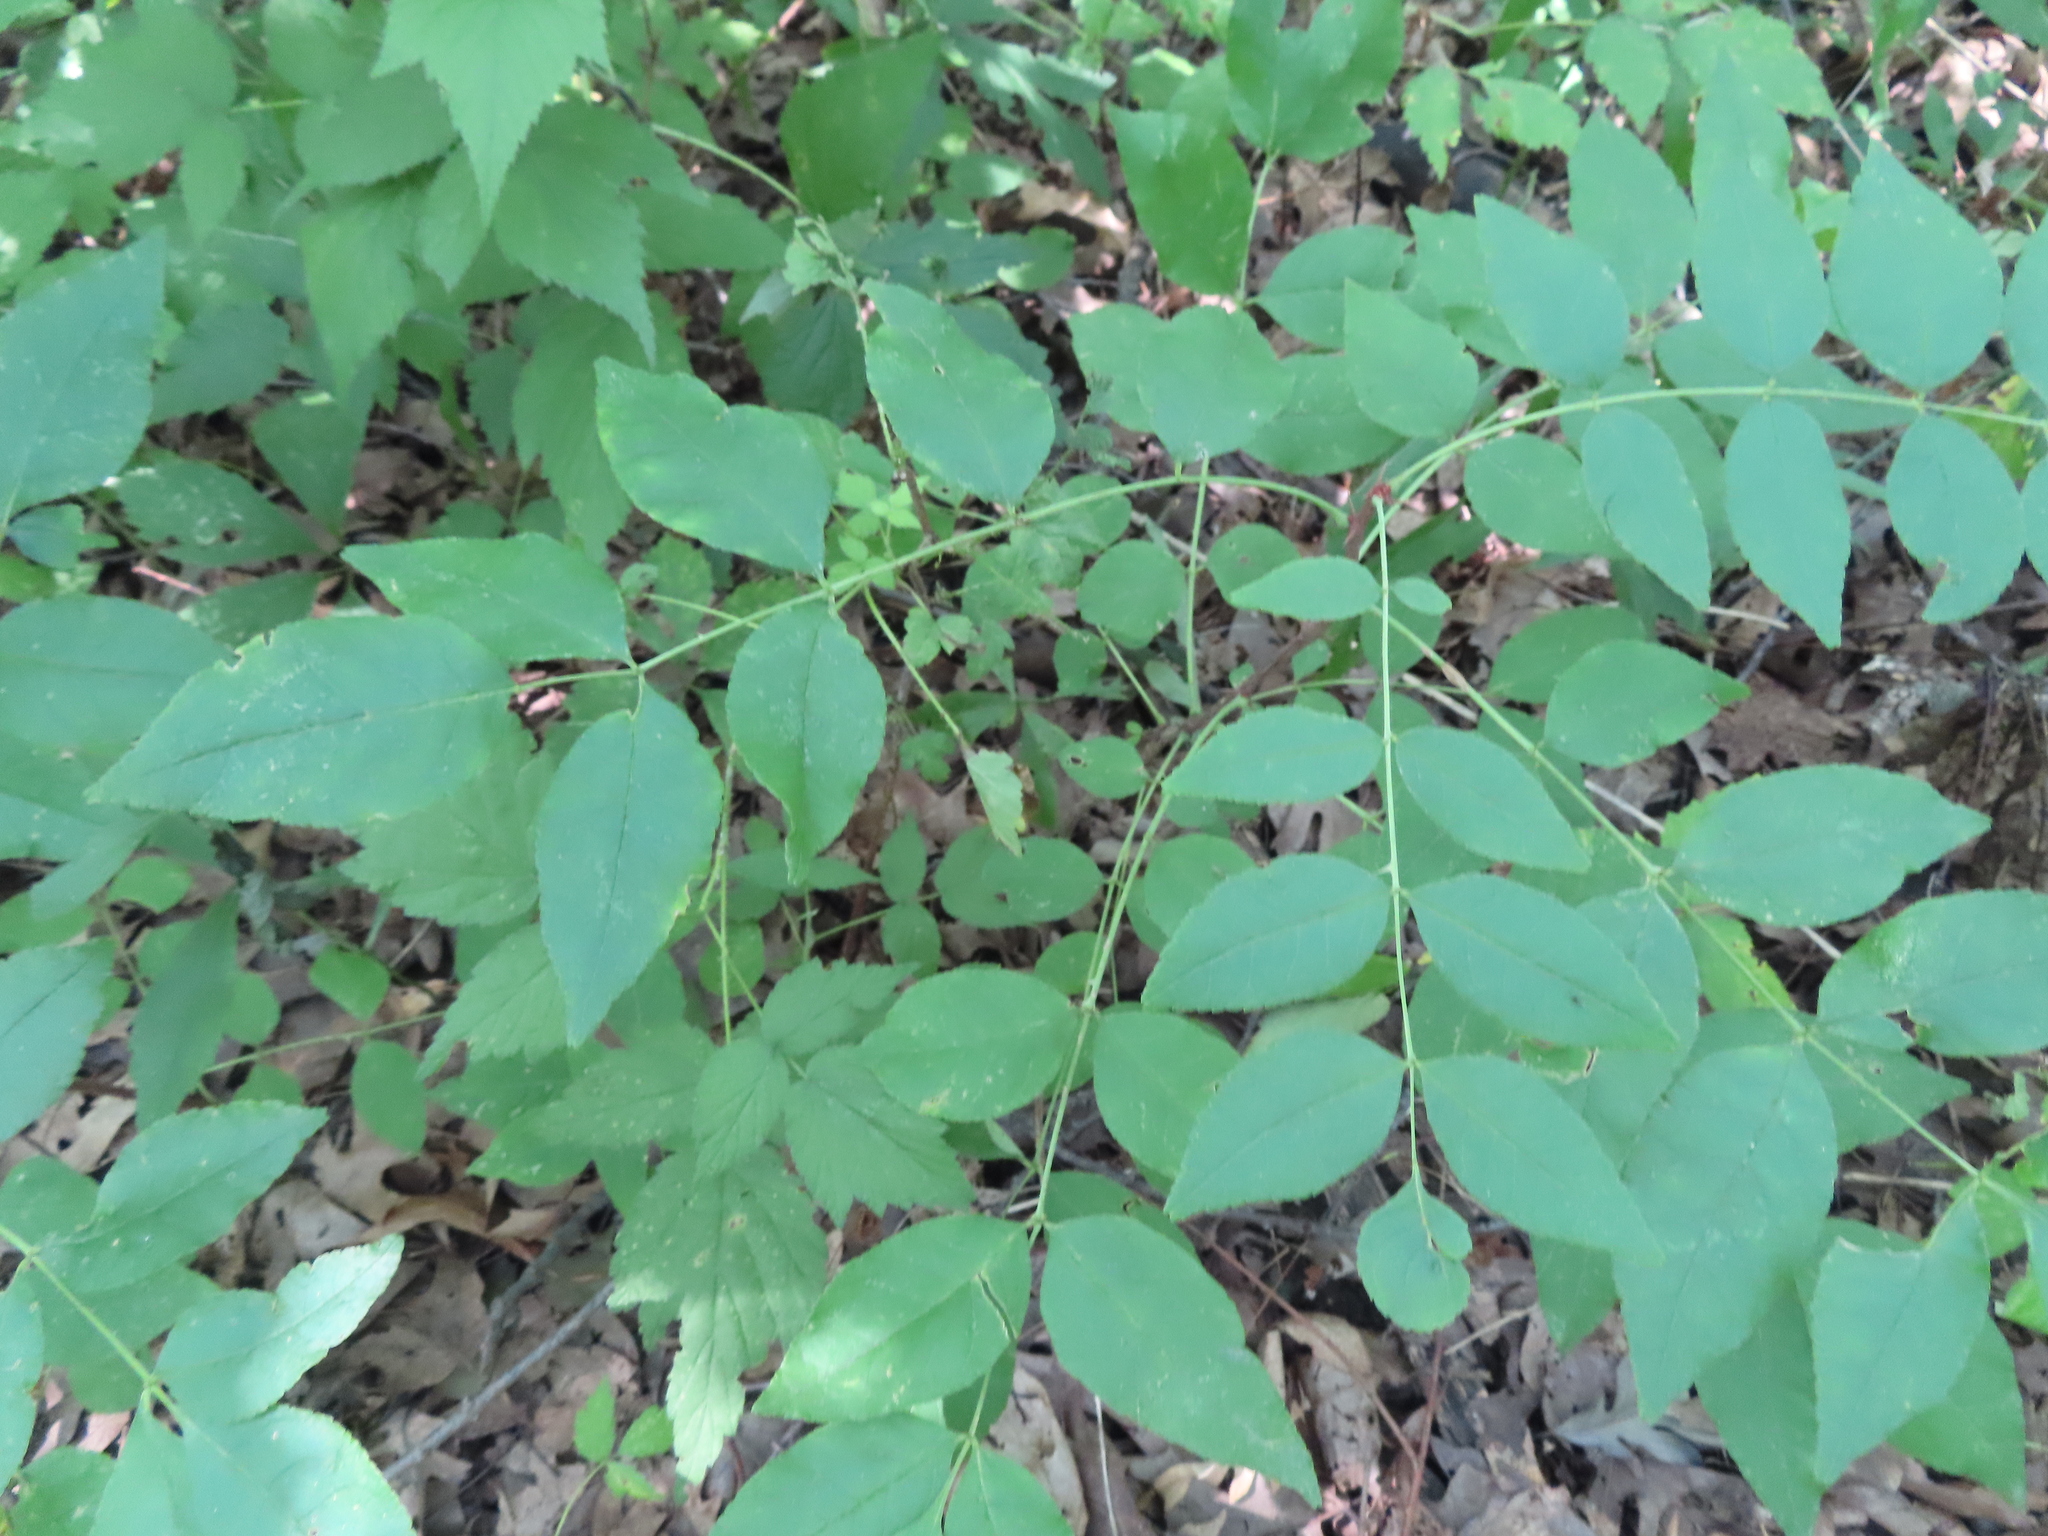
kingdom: Plantae
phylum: Tracheophyta
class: Magnoliopsida
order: Sapindales
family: Rutaceae
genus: Zanthoxylum
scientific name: Zanthoxylum americanum
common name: Northern prickly-ash
